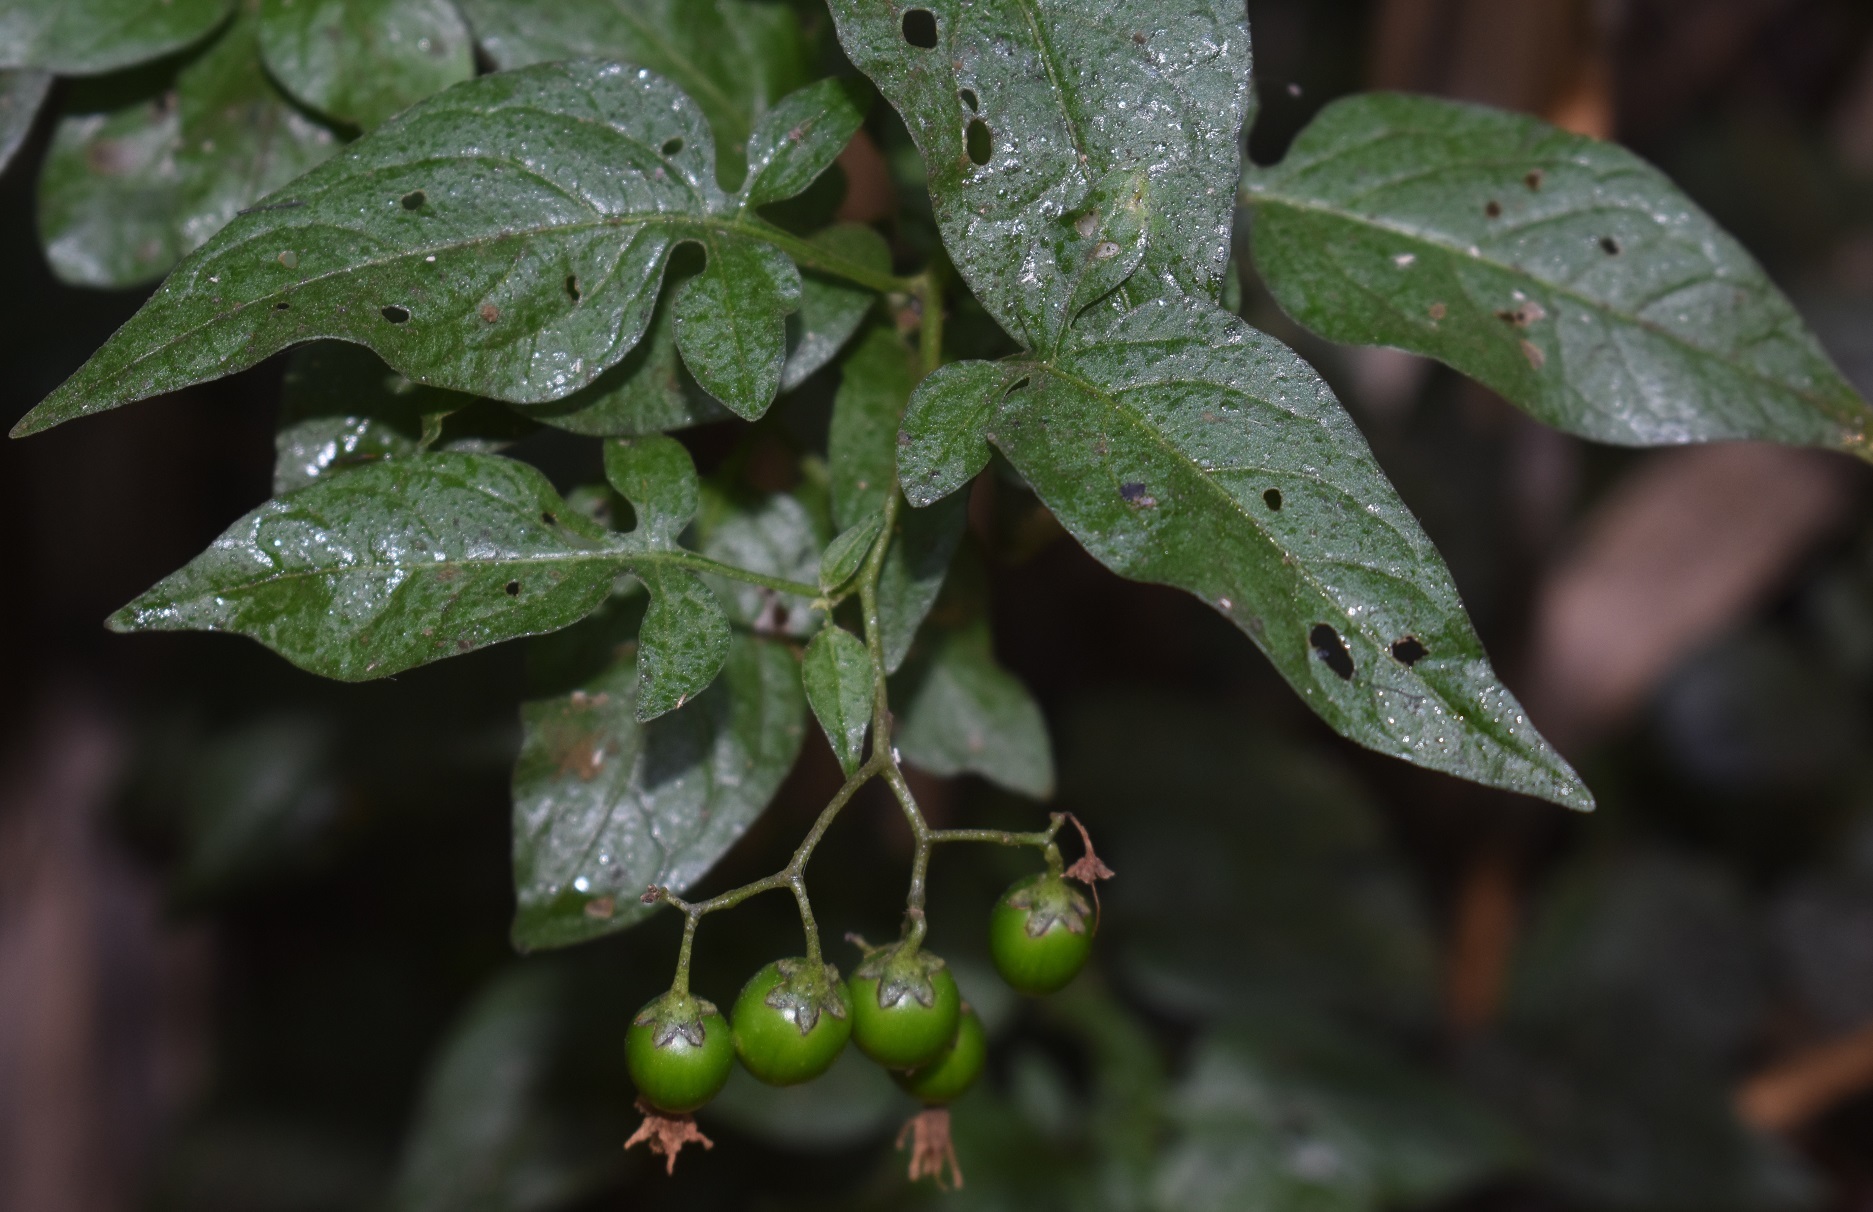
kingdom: Plantae
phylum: Tracheophyta
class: Magnoliopsida
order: Solanales
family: Solanaceae
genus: Solanum
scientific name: Solanum dulcamara
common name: Climbing nightshade
